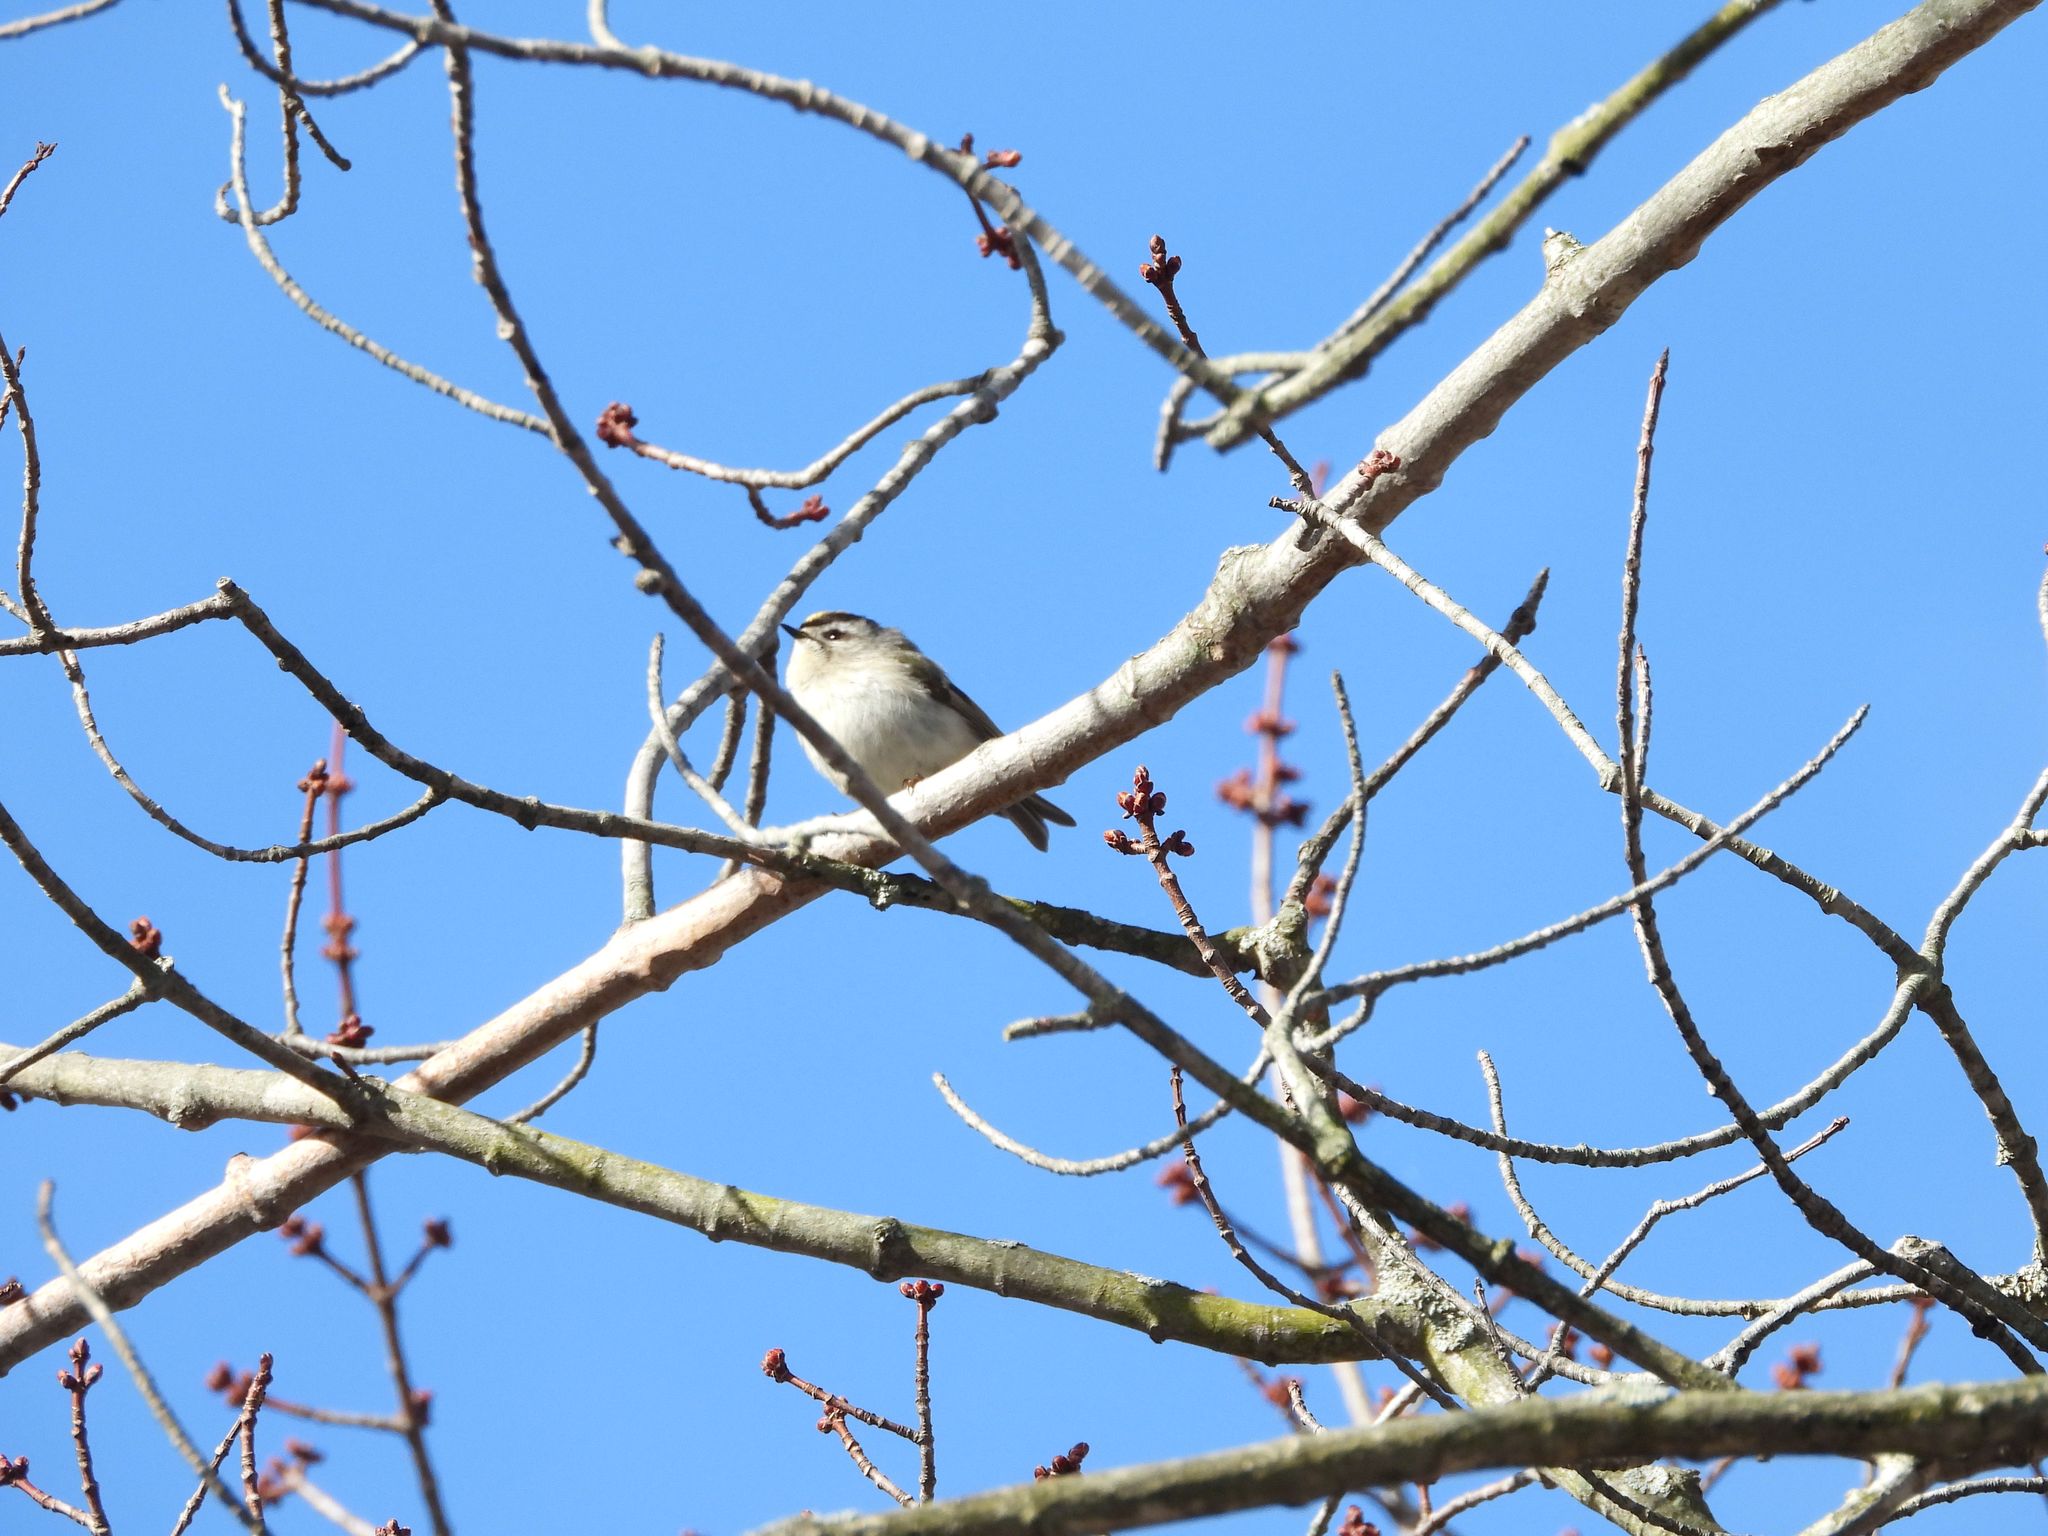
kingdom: Animalia
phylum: Chordata
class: Aves
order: Passeriformes
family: Regulidae
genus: Regulus
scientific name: Regulus satrapa
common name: Golden-crowned kinglet
